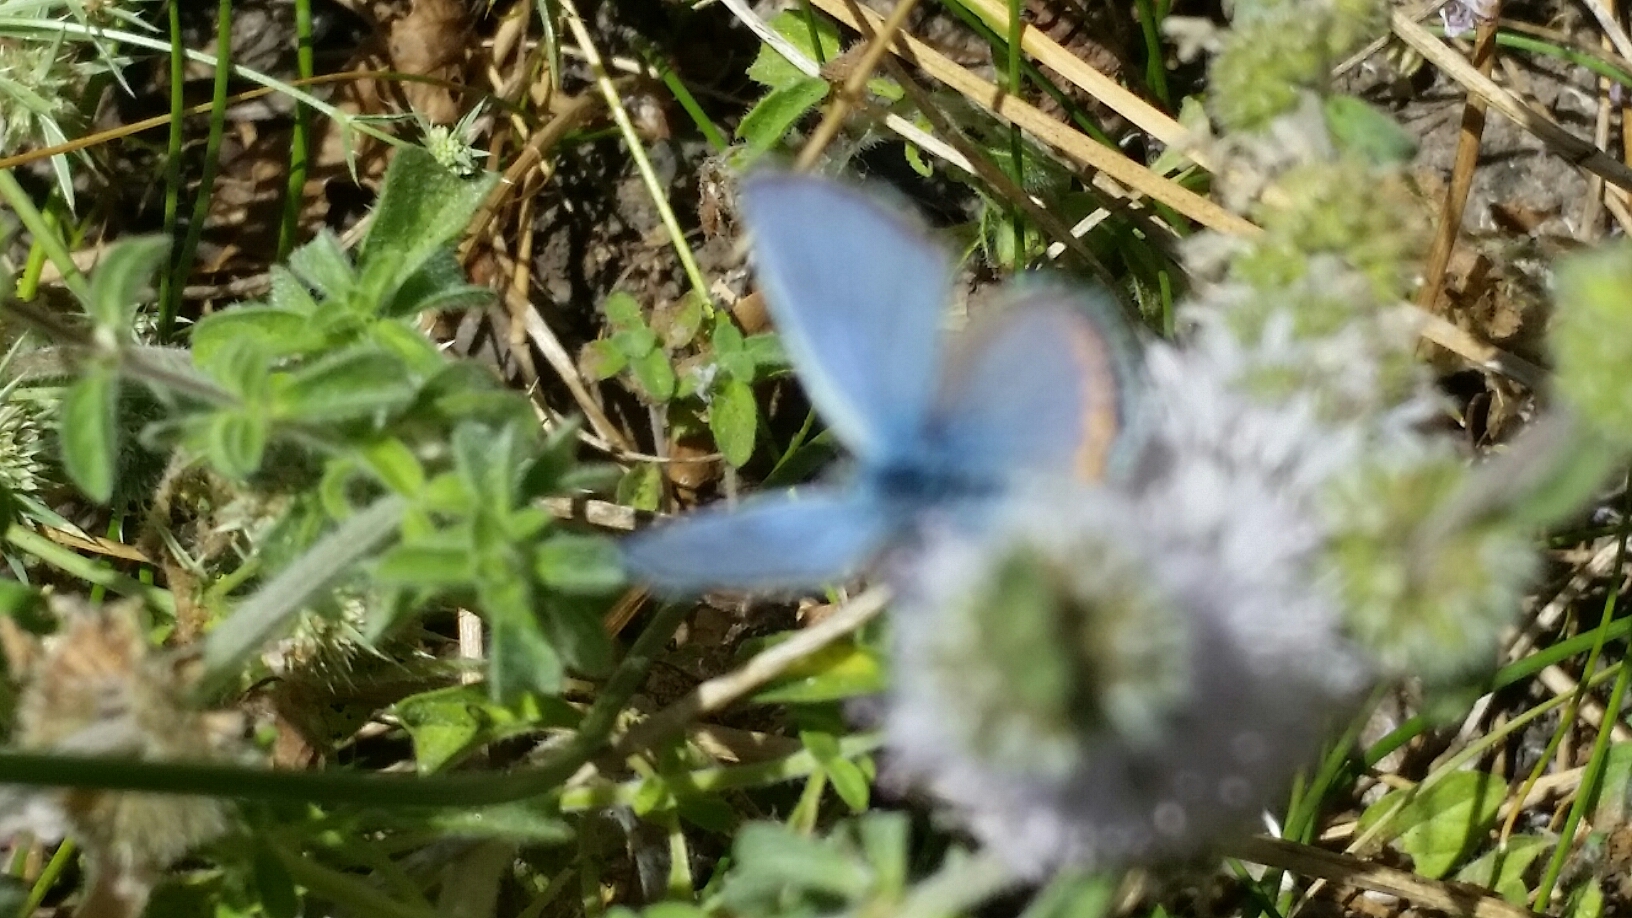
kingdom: Animalia
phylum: Arthropoda
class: Insecta
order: Lepidoptera
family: Lycaenidae
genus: Icaricia
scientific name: Icaricia acmon
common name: Acmon blue
